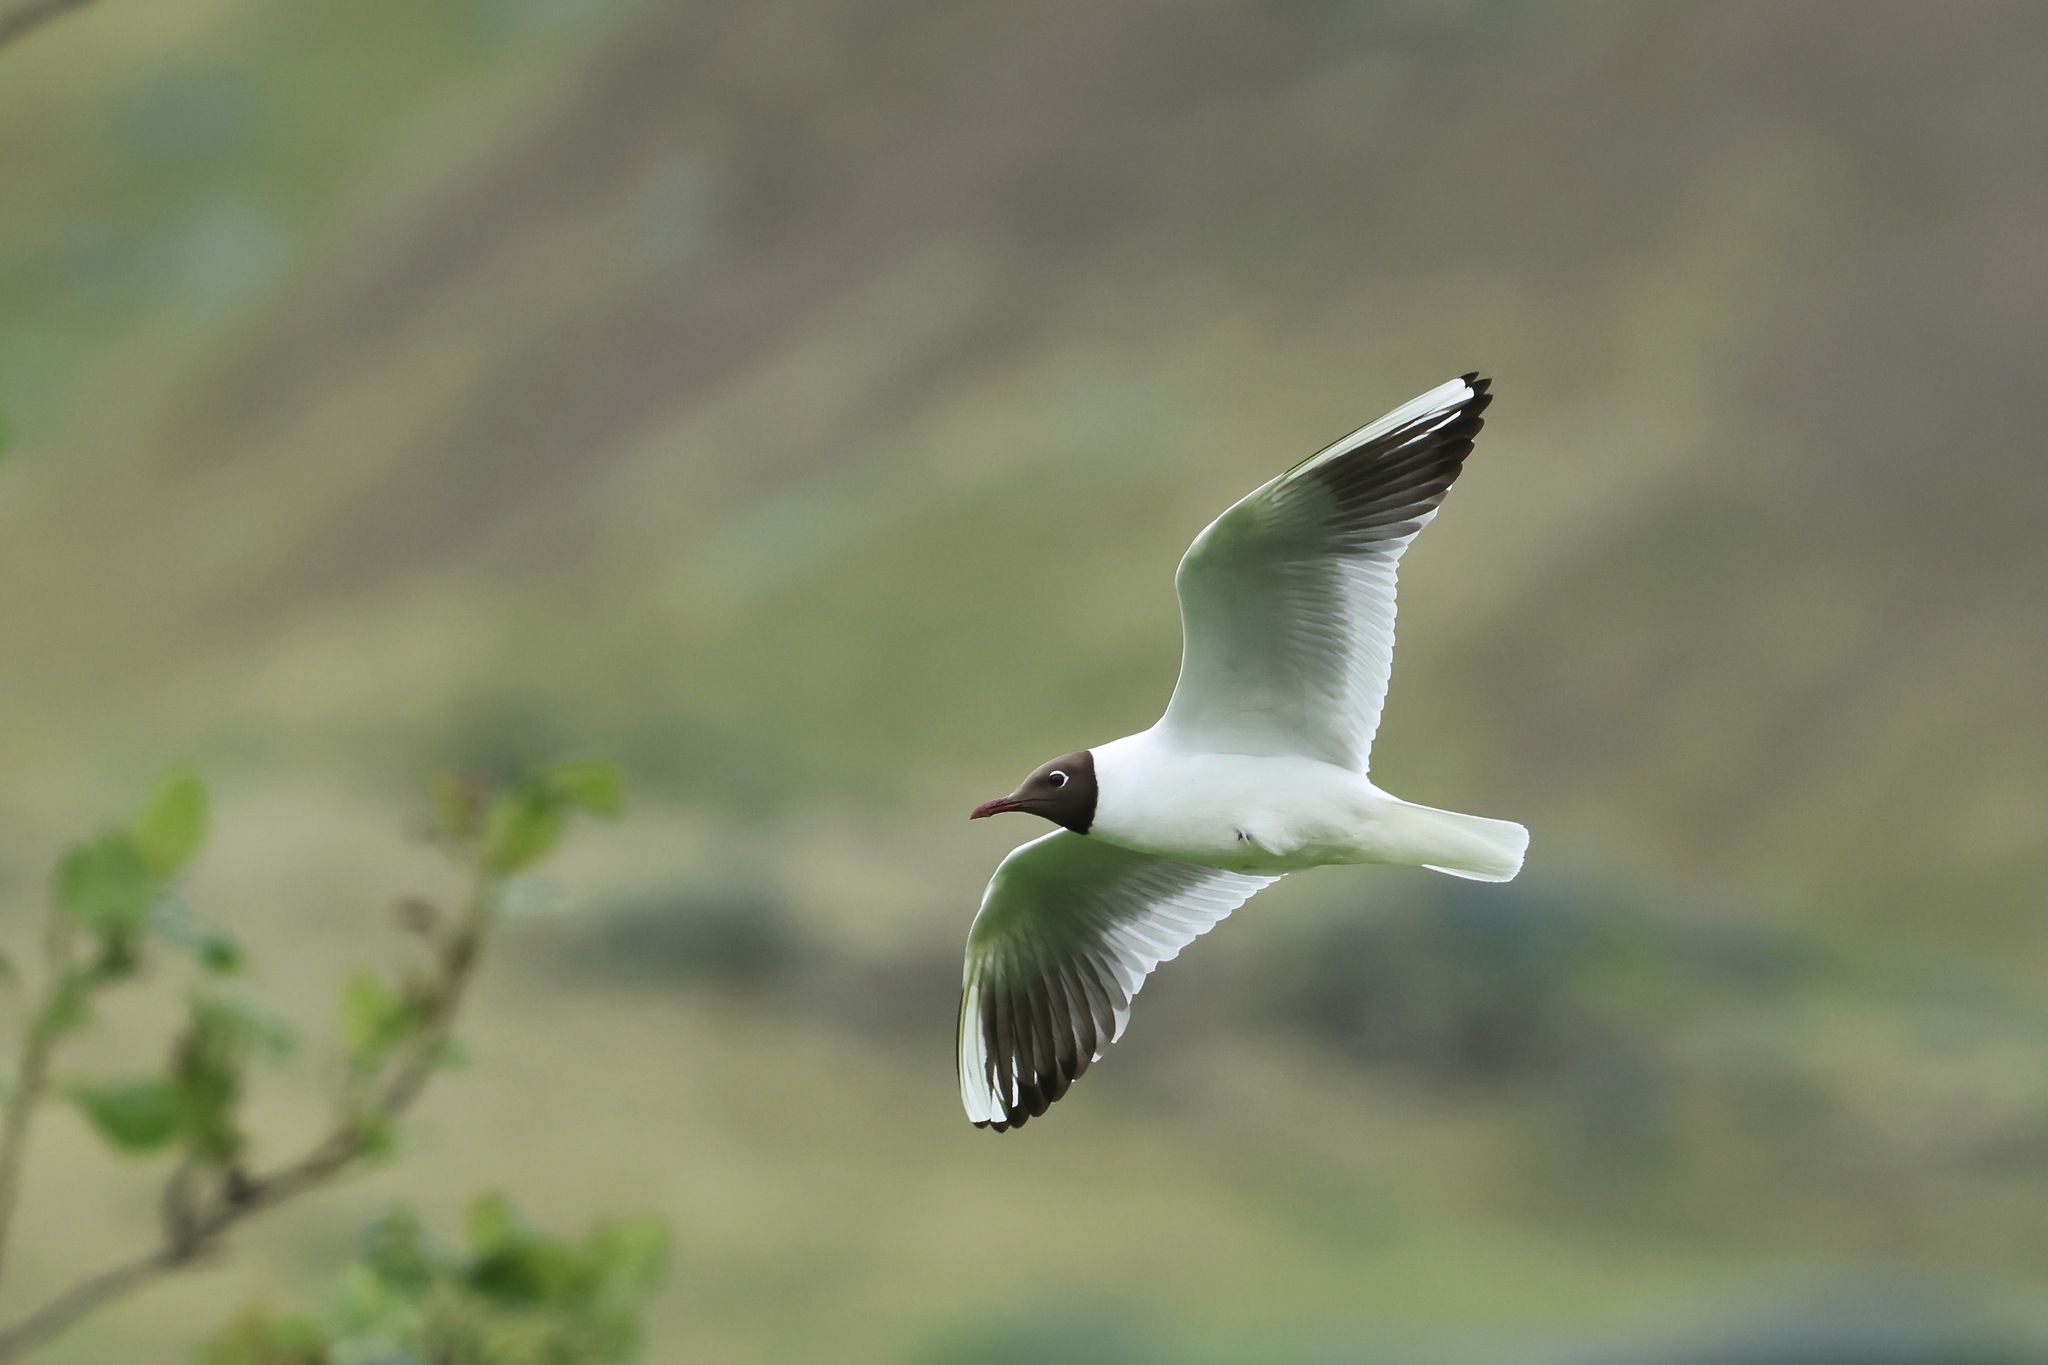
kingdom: Animalia
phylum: Chordata
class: Aves
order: Charadriiformes
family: Laridae
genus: Chroicocephalus
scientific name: Chroicocephalus ridibundus
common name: Black-headed gull
